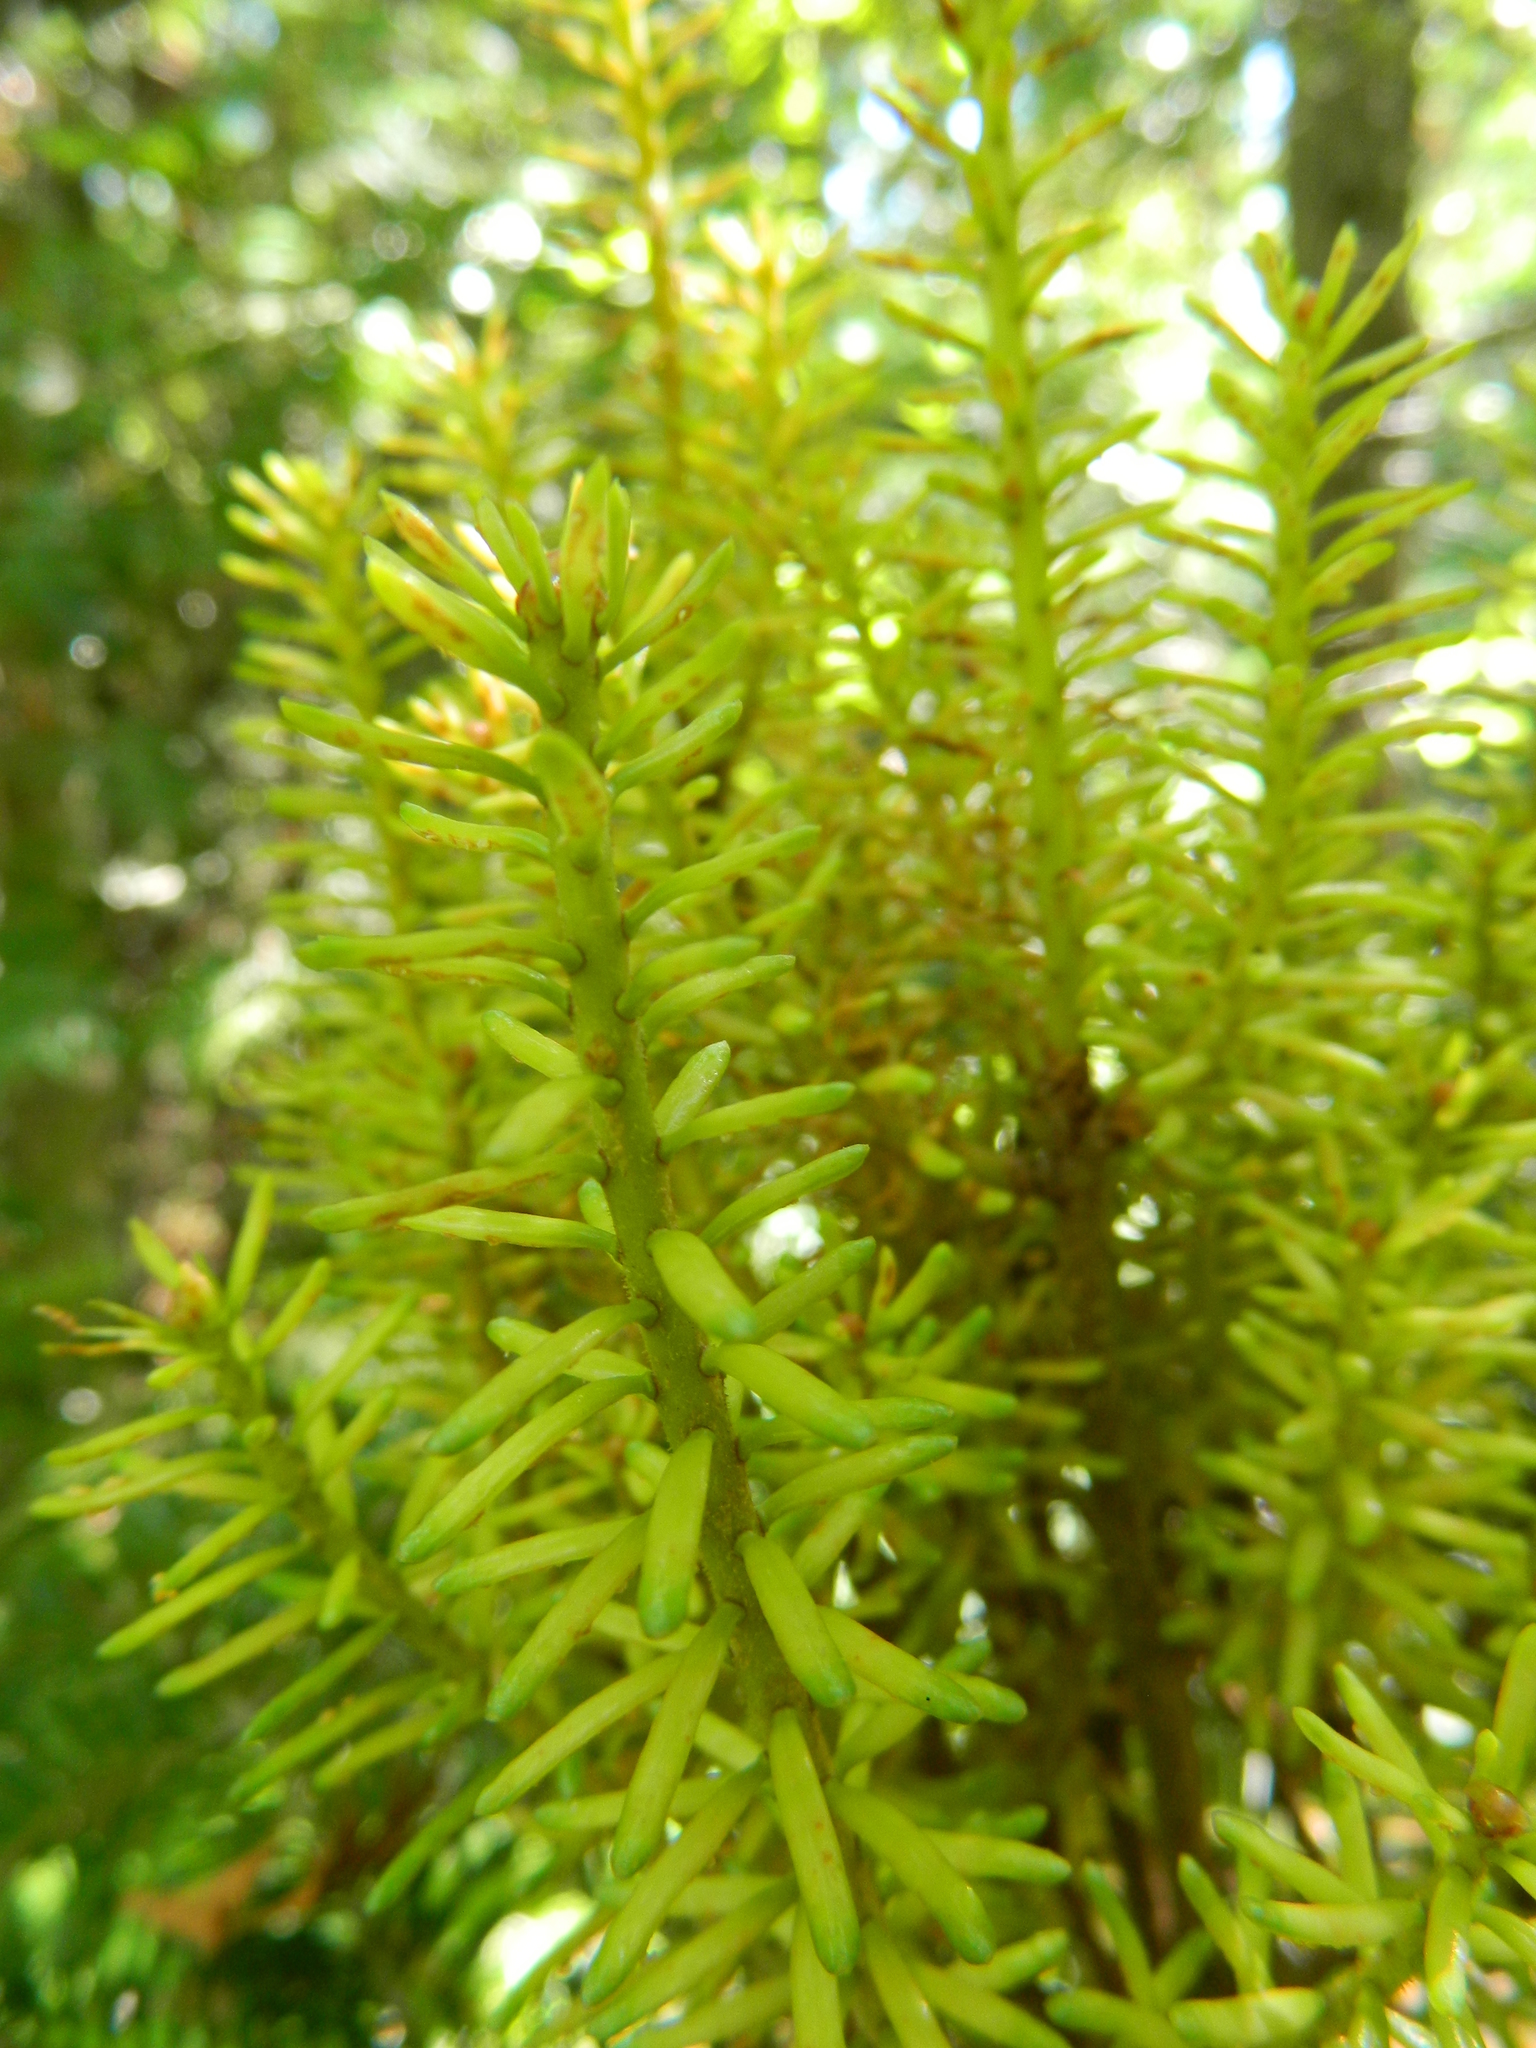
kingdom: Plantae
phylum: Tracheophyta
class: Pinopsida
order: Pinales
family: Pinaceae
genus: Abies
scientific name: Abies balsamea
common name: Balsam fir
